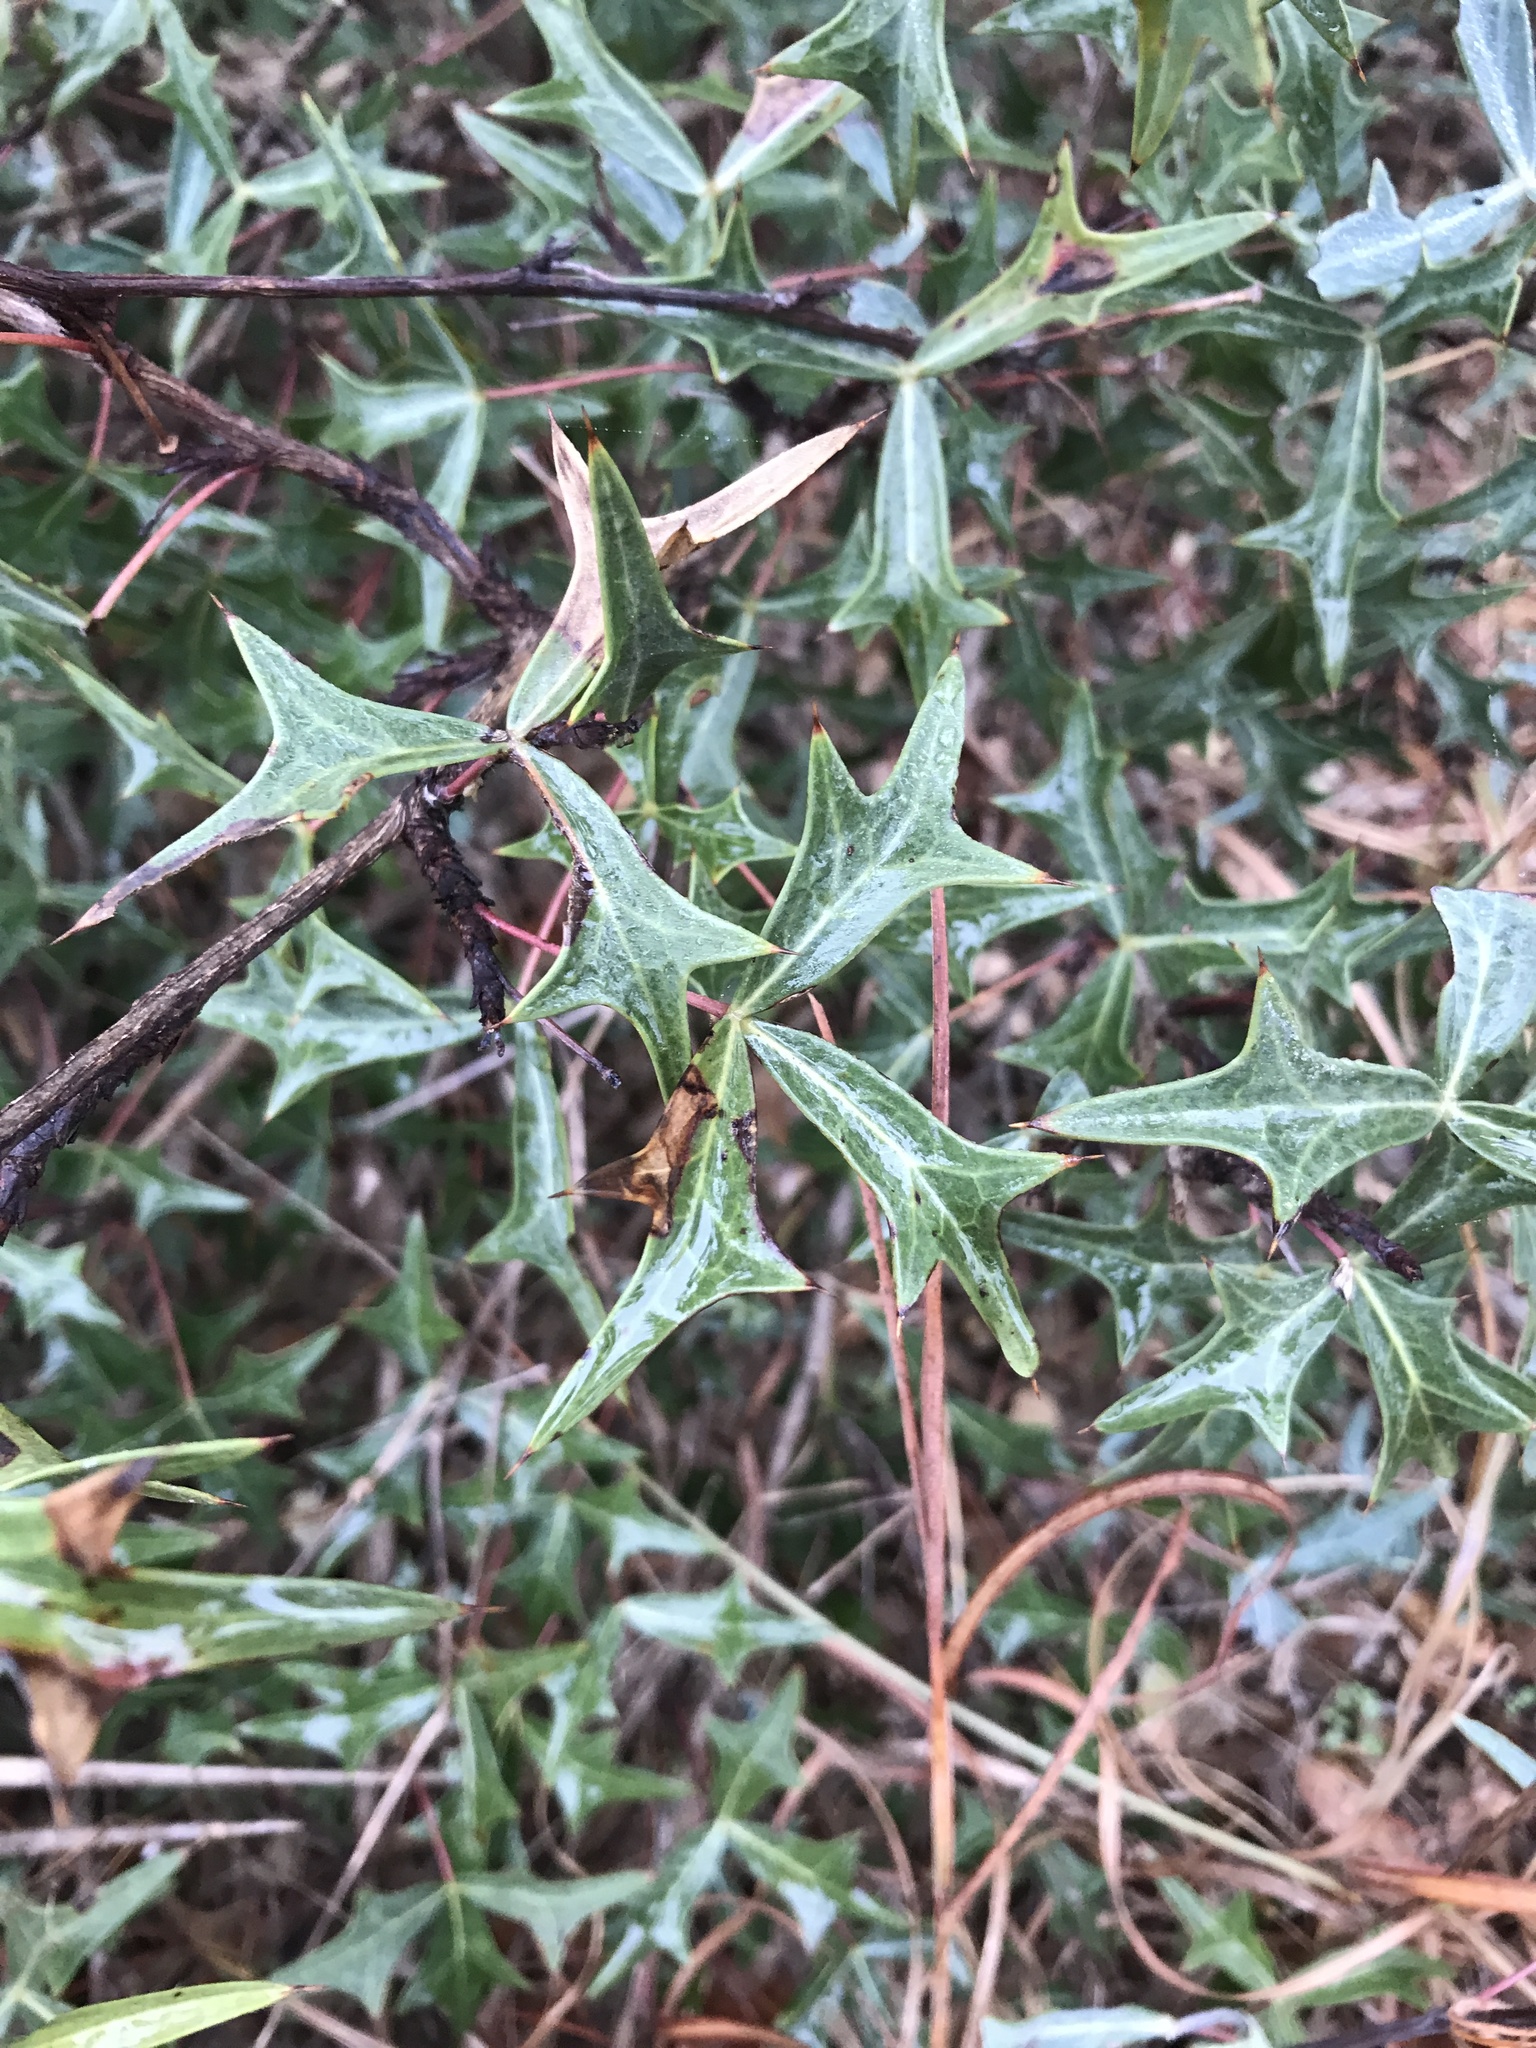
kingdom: Plantae
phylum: Tracheophyta
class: Magnoliopsida
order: Ranunculales
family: Berberidaceae
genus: Alloberberis
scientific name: Alloberberis trifoliolata
